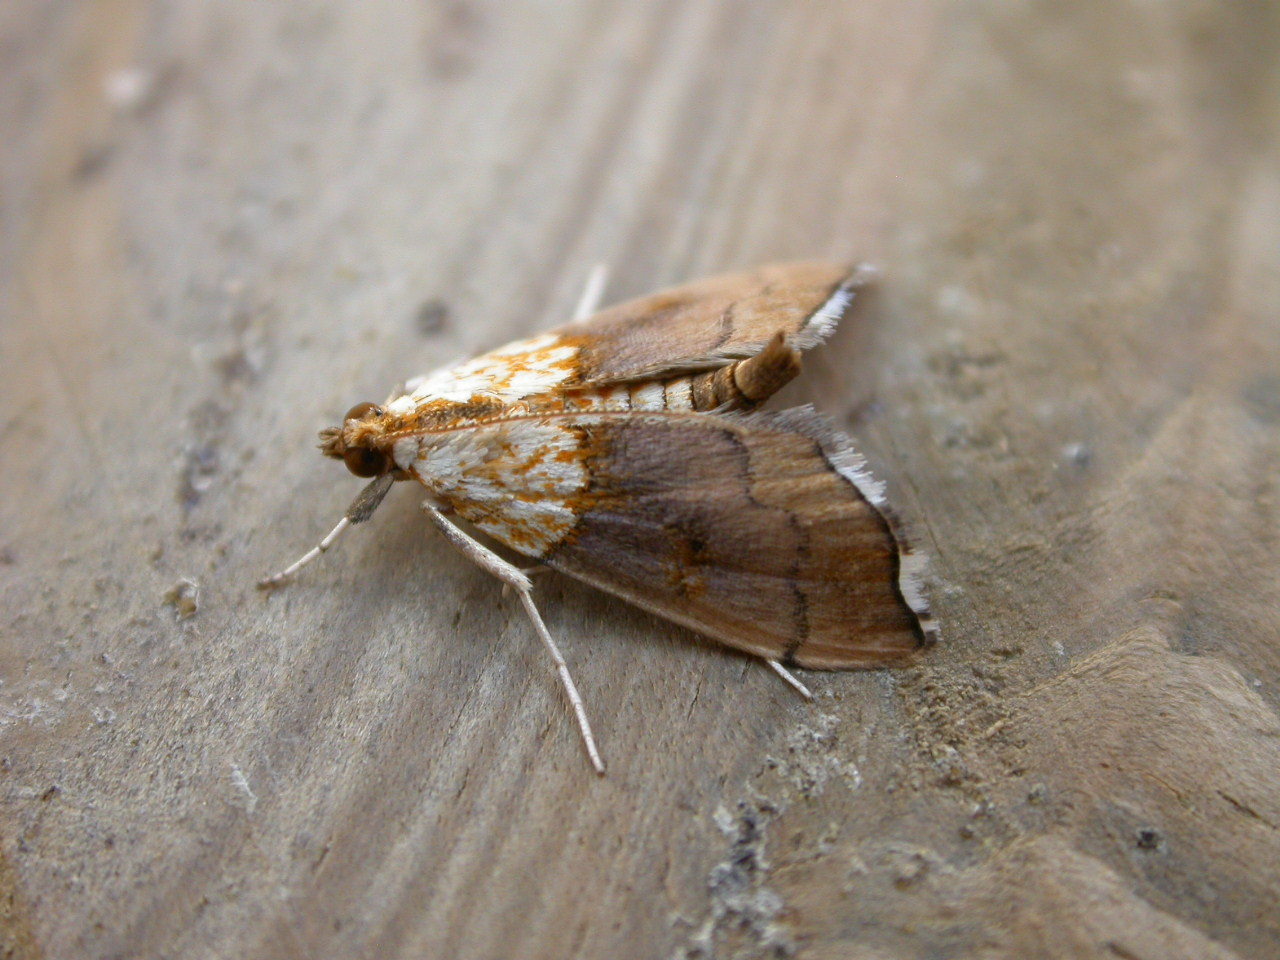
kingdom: Animalia
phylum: Arthropoda
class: Insecta
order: Lepidoptera
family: Crambidae
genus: Agrotera
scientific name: Agrotera nemoralis
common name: Beautiful pearl
